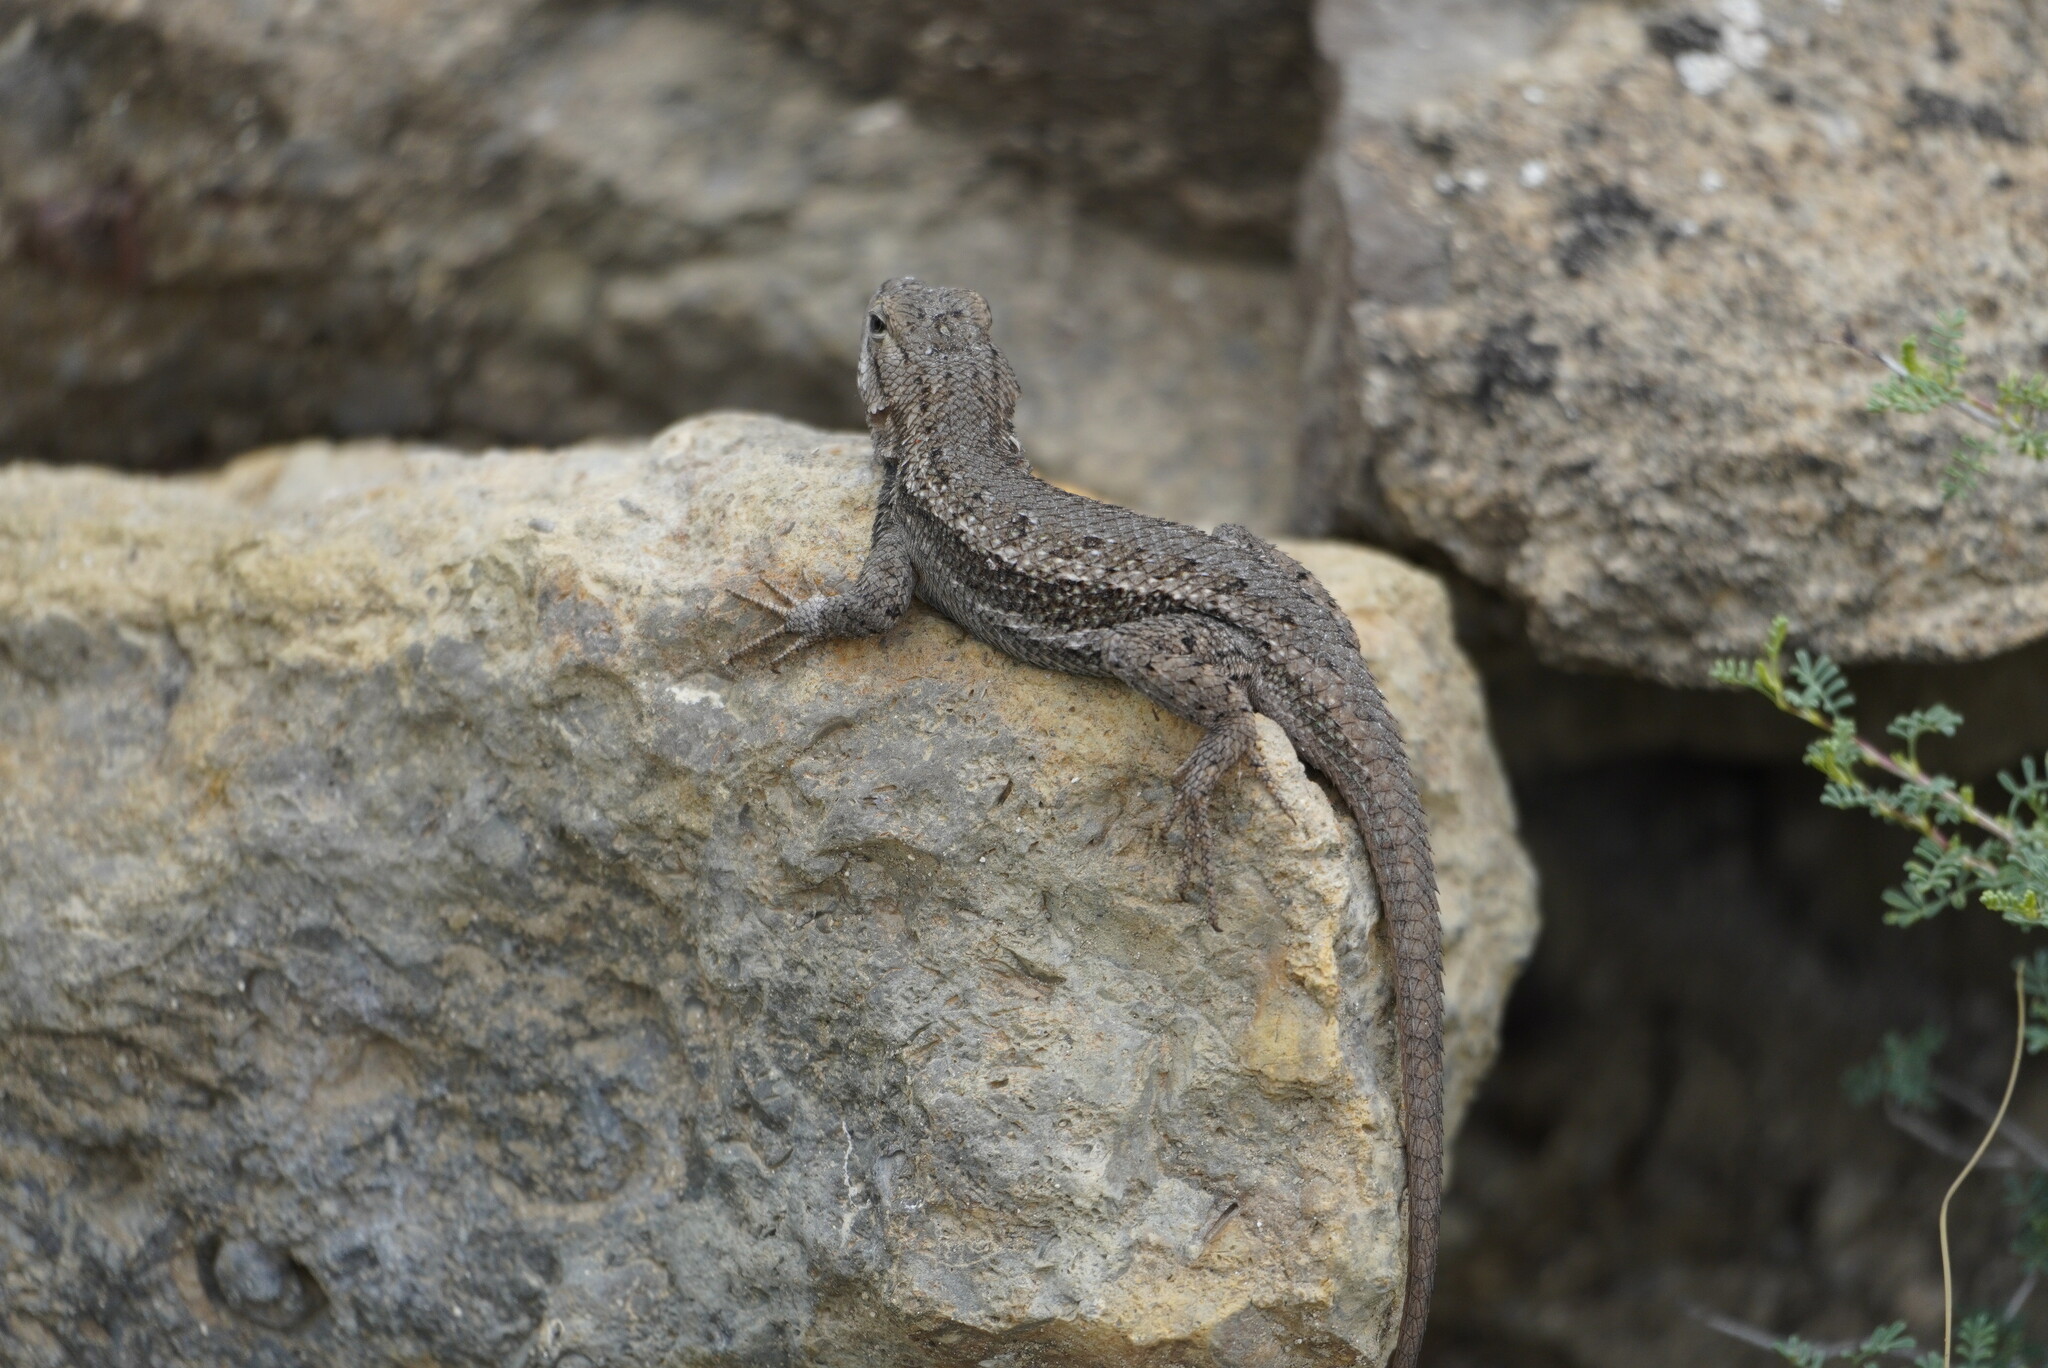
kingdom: Animalia
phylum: Chordata
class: Squamata
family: Phrynosomatidae
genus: Sceloporus
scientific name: Sceloporus cowlesi
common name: White sands prairie lizard
